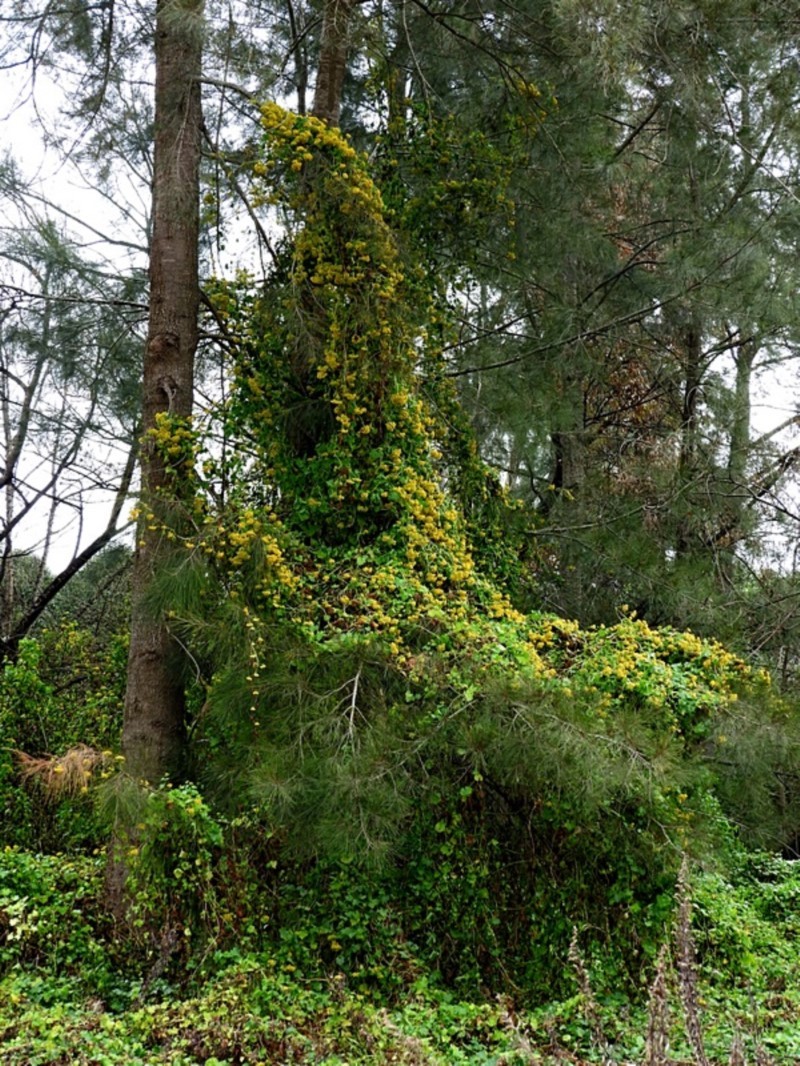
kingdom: Plantae
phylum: Tracheophyta
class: Magnoliopsida
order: Asterales
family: Asteraceae
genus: Delairea
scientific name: Delairea odorata
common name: Cape-ivy
